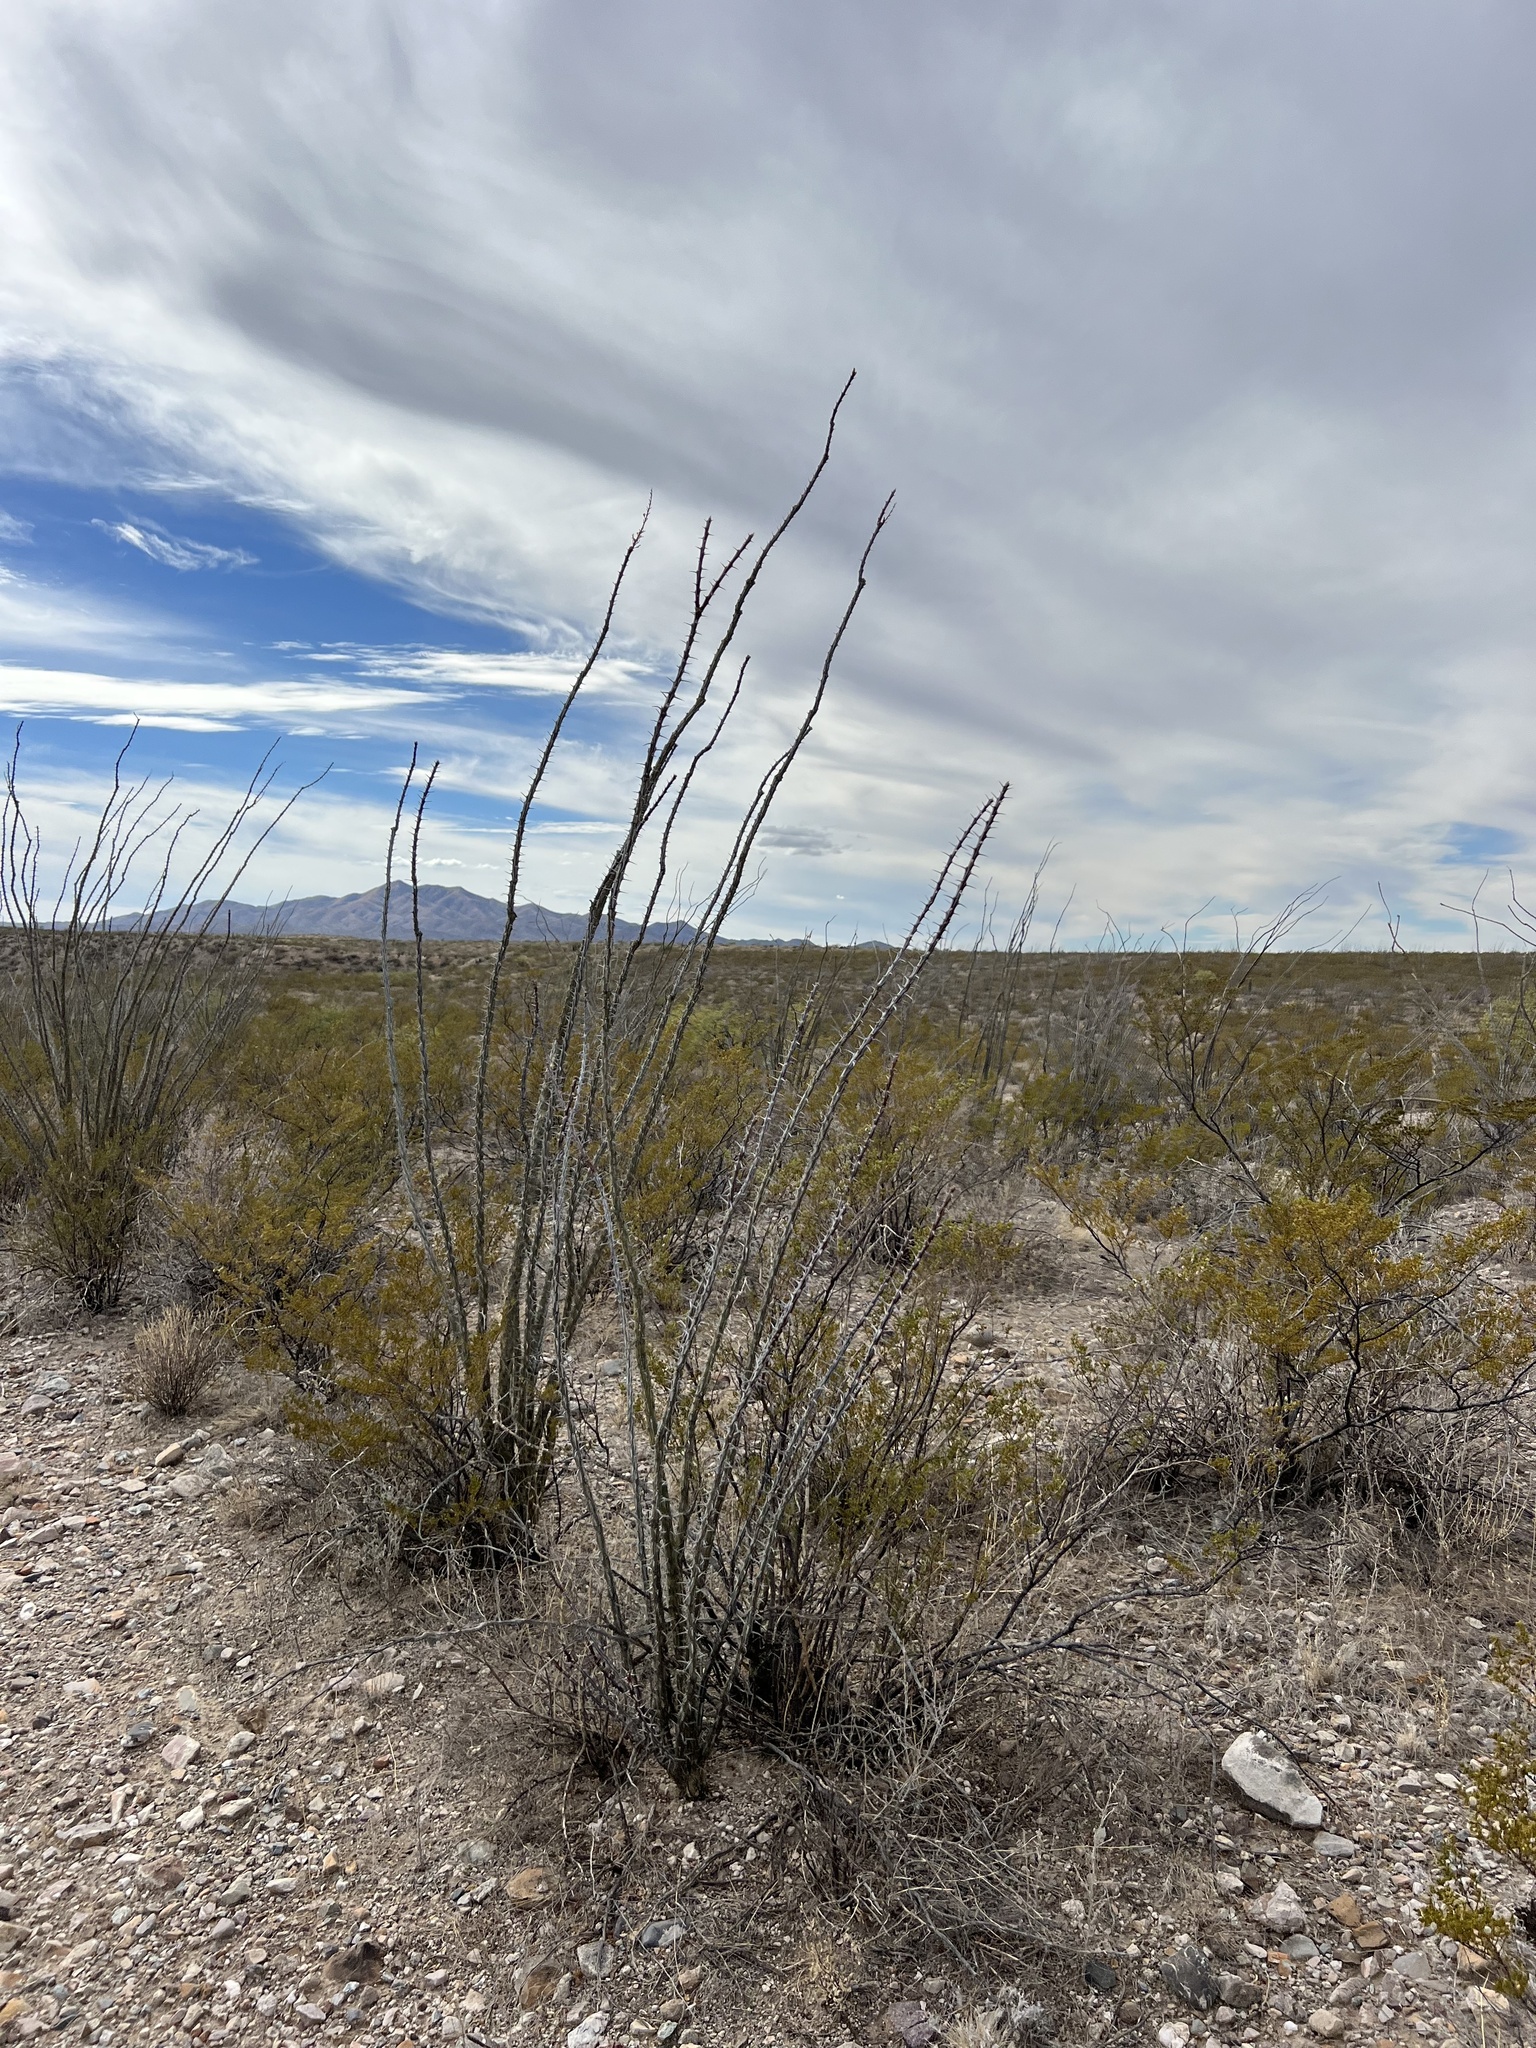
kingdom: Plantae
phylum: Tracheophyta
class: Magnoliopsida
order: Ericales
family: Fouquieriaceae
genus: Fouquieria
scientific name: Fouquieria splendens
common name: Vine-cactus
